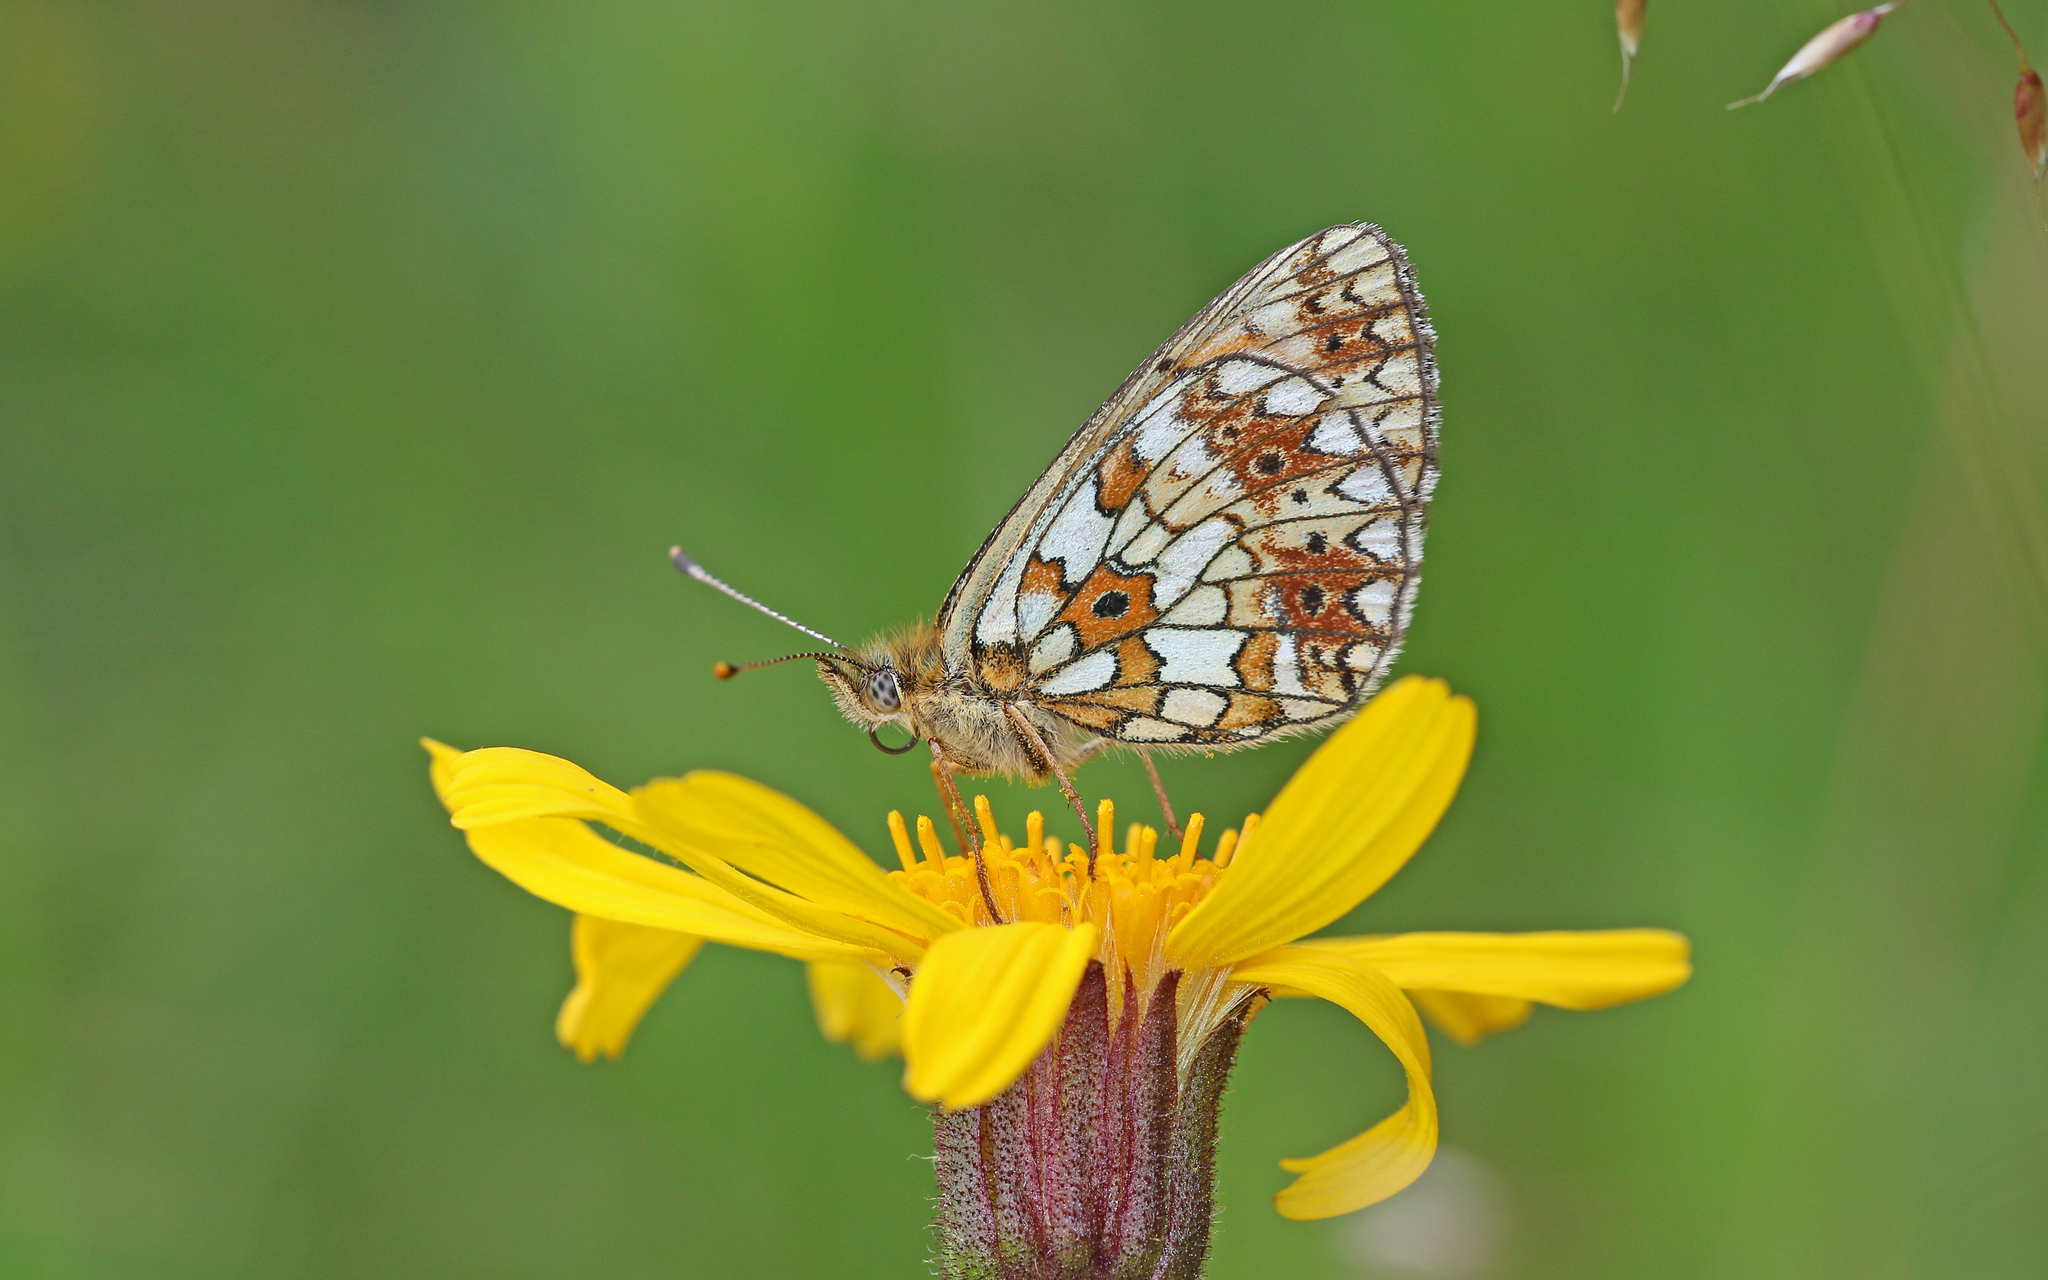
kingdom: Animalia
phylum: Arthropoda
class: Insecta
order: Lepidoptera
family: Nymphalidae
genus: Boloria
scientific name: Boloria selene
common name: Small pearl-bordered fritillary
